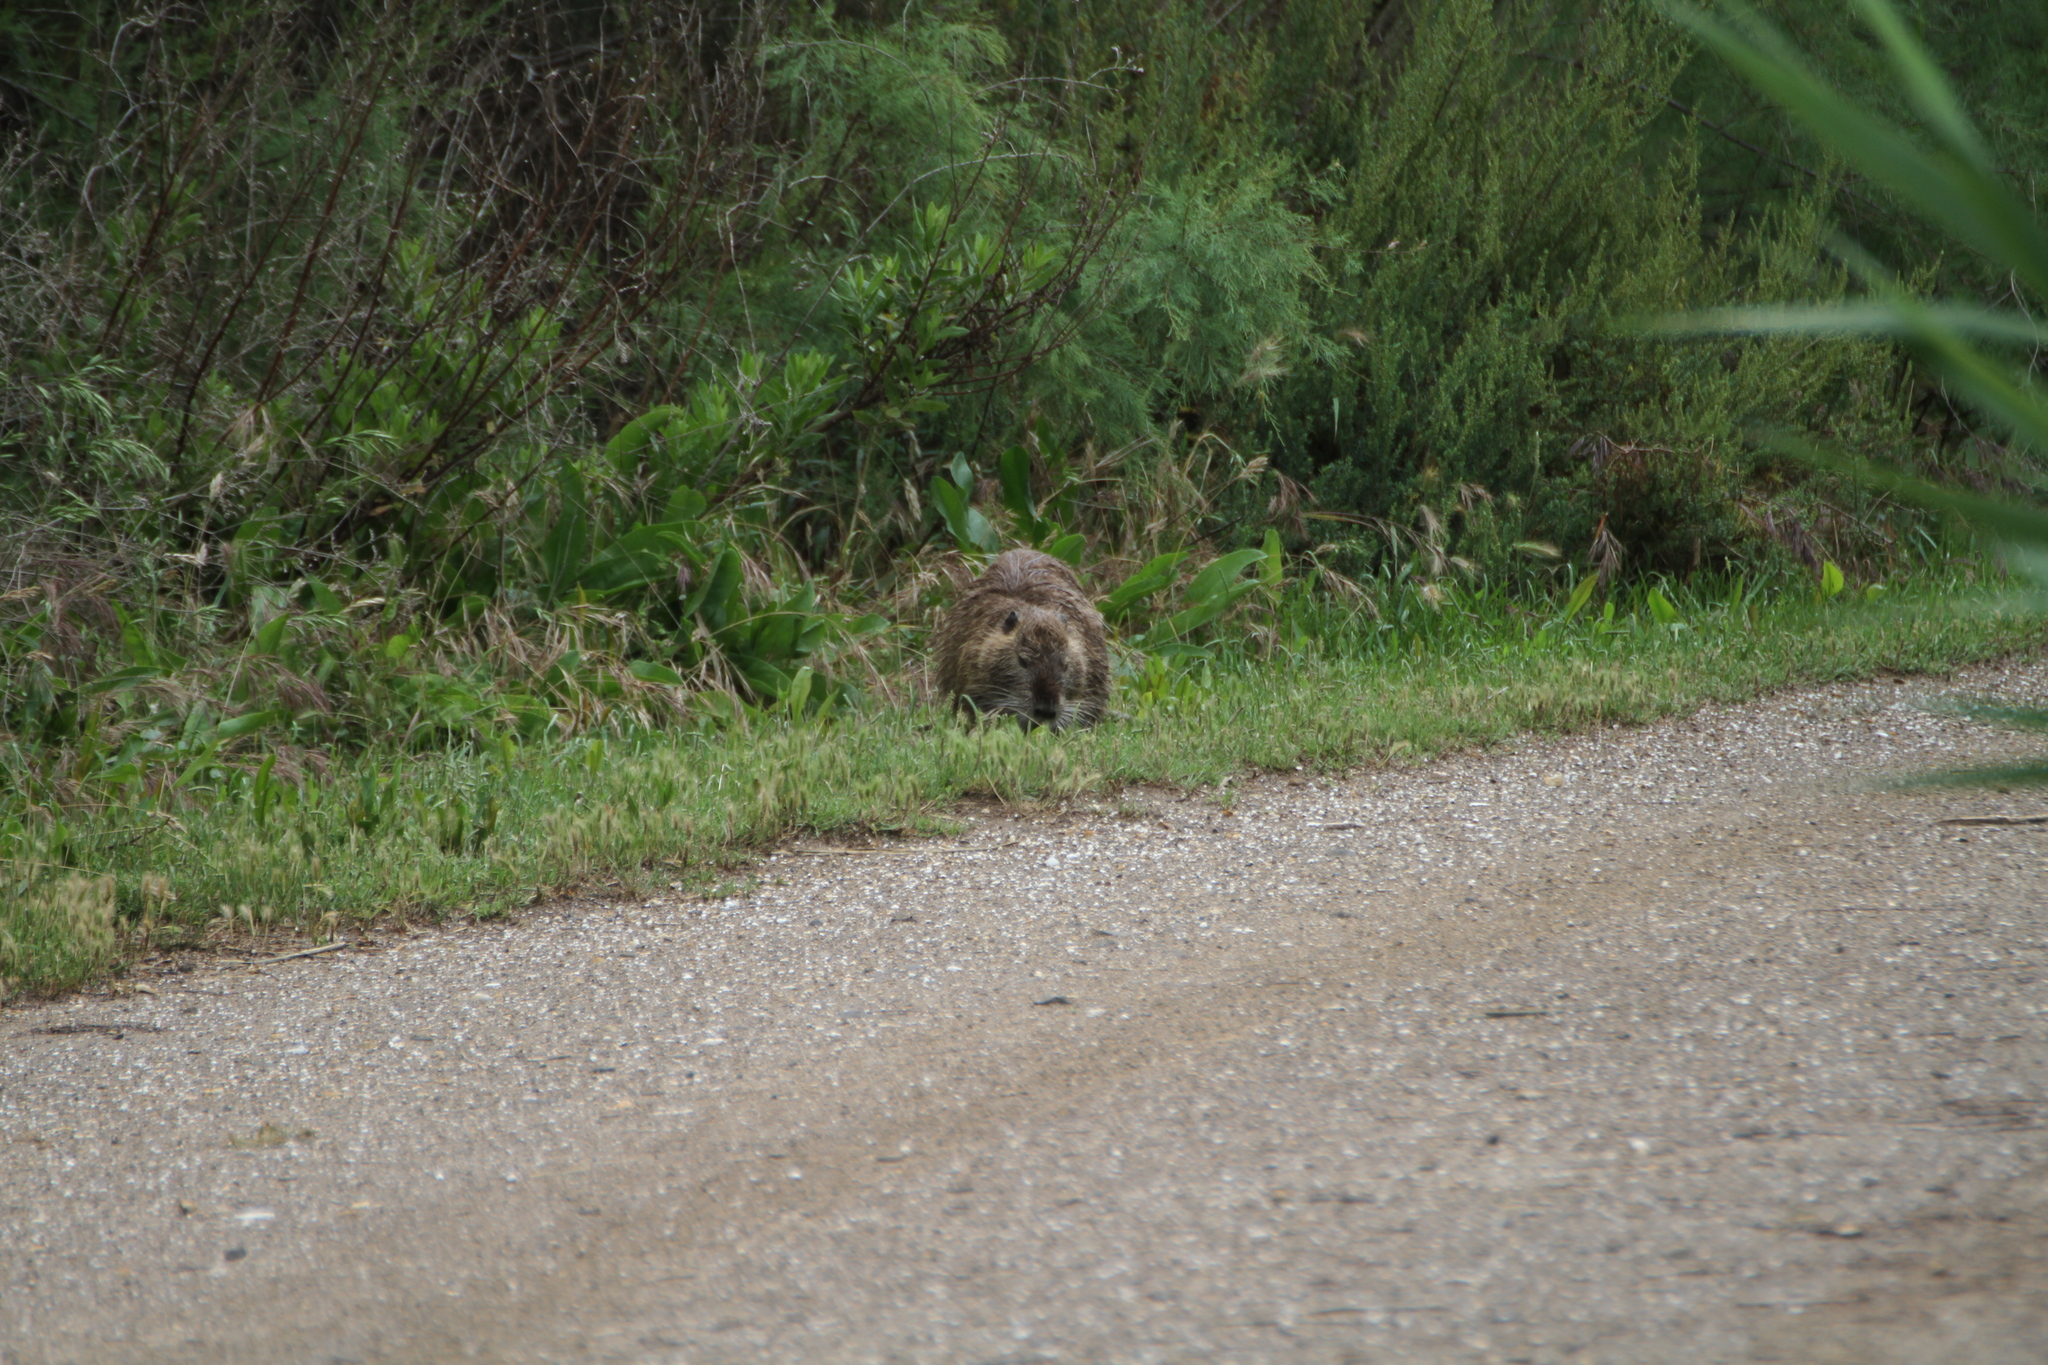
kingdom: Animalia
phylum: Chordata
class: Mammalia
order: Rodentia
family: Myocastoridae
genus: Myocastor
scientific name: Myocastor coypus
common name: Coypu
